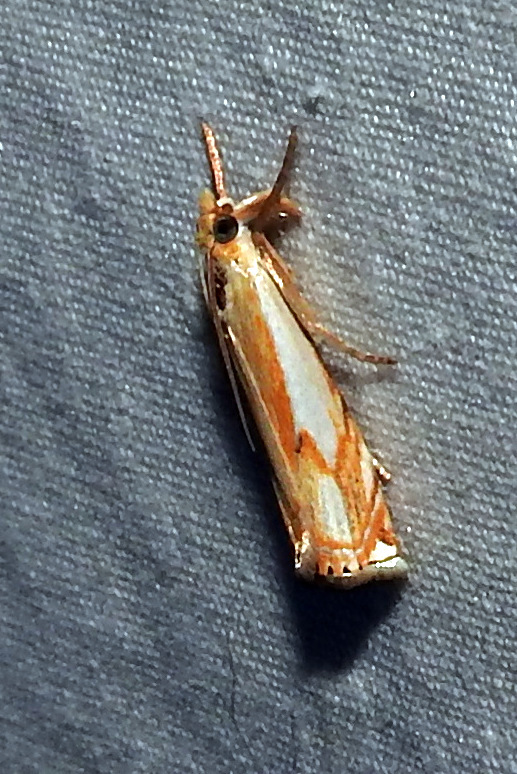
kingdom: Animalia
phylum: Arthropoda
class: Insecta
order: Lepidoptera
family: Crambidae
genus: Crambus
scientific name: Crambus agitatellus
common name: Double-banded grass-veneer
